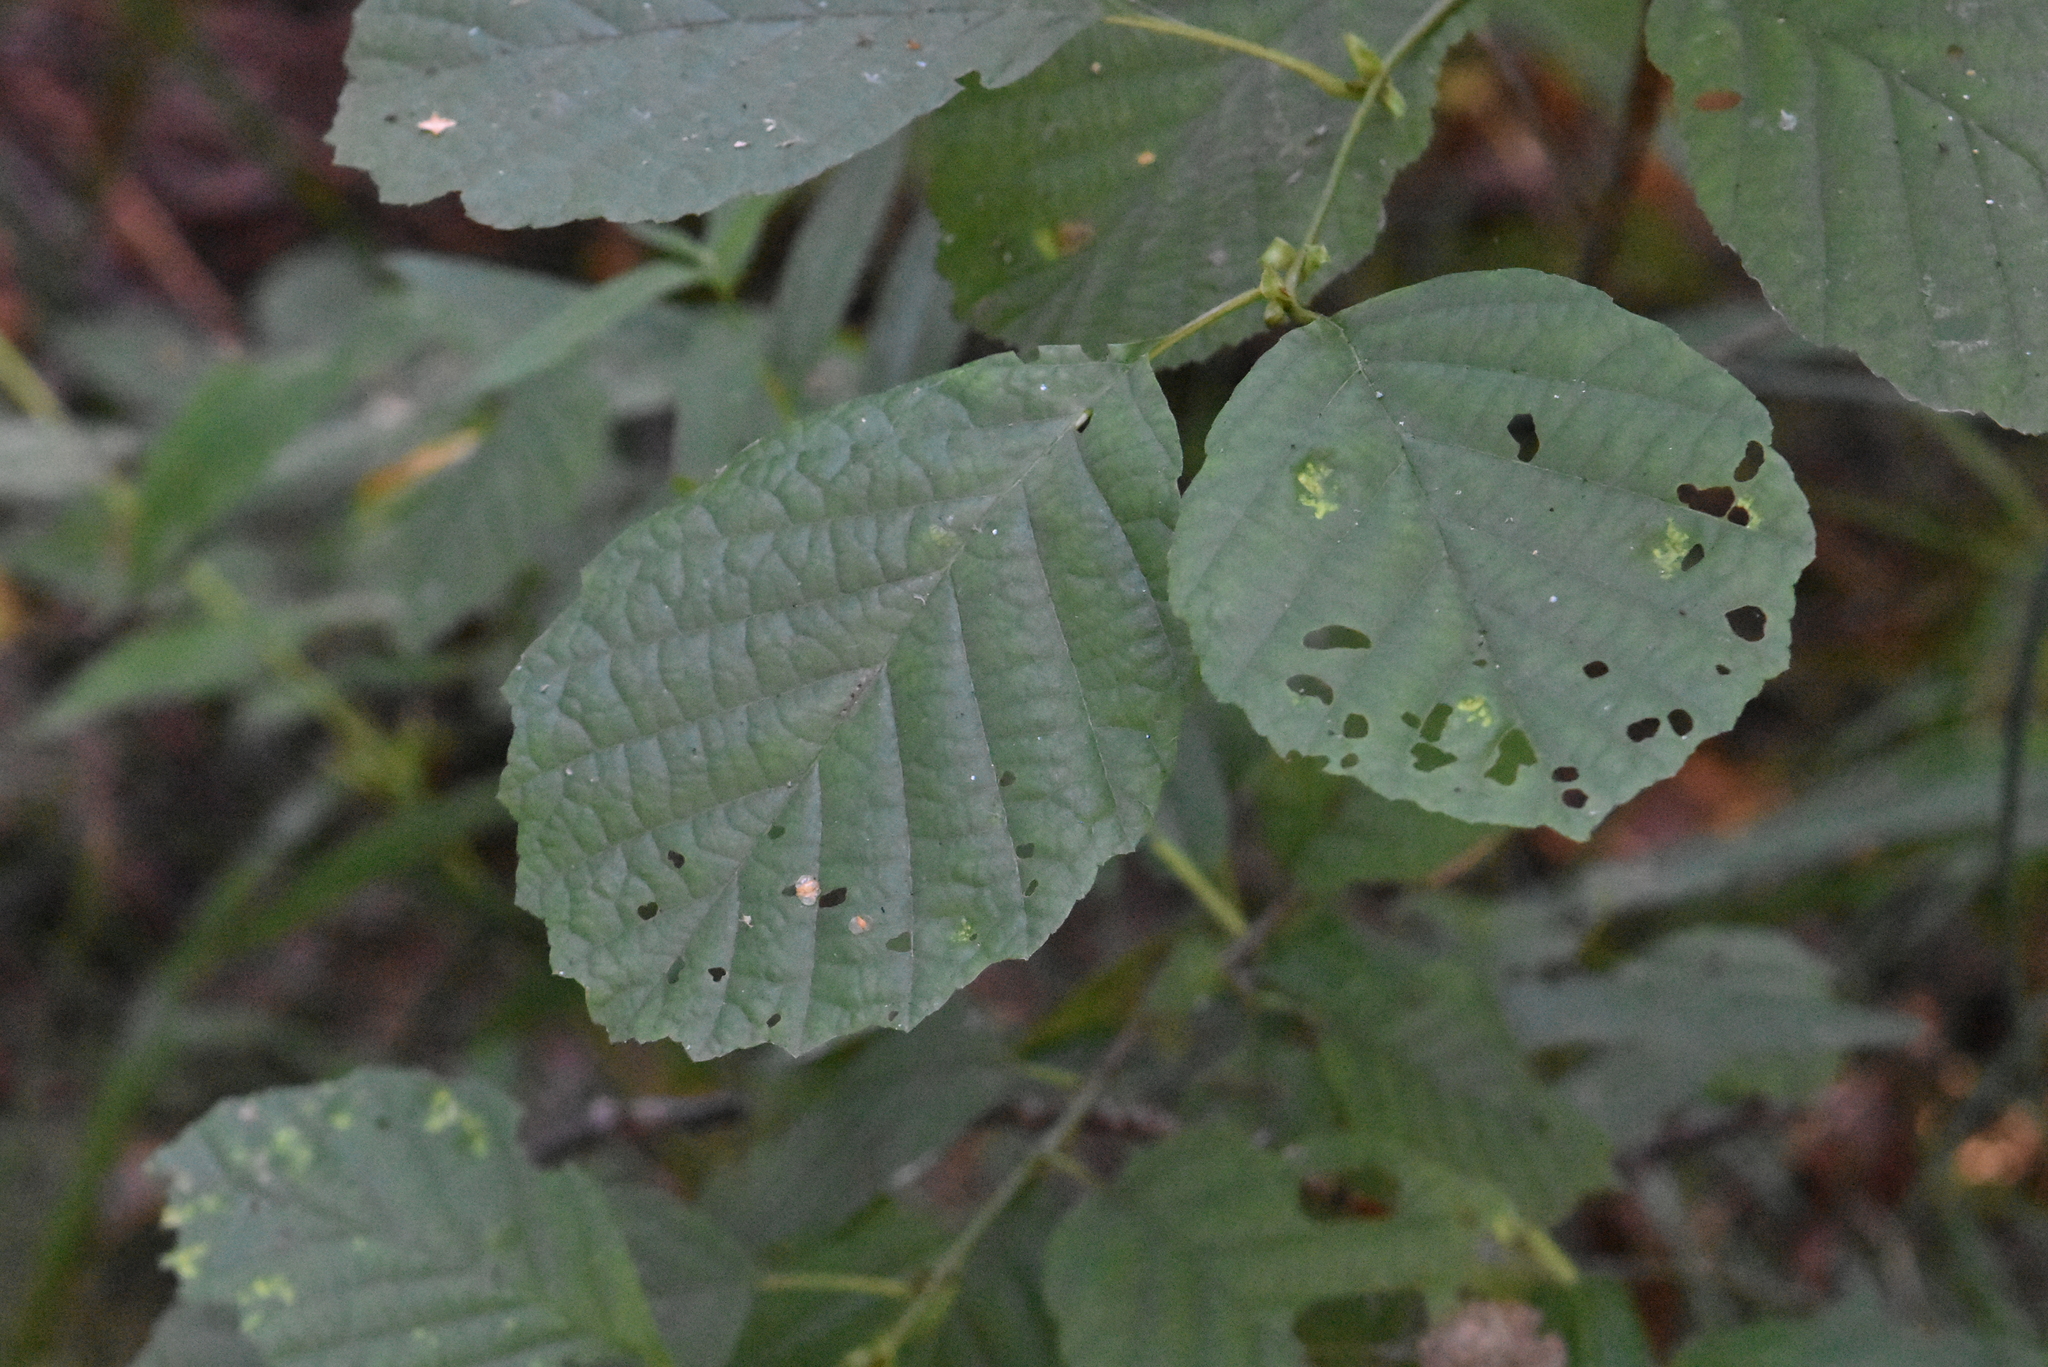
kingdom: Plantae
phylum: Tracheophyta
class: Magnoliopsida
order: Fagales
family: Betulaceae
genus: Alnus
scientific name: Alnus incana
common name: Grey alder
